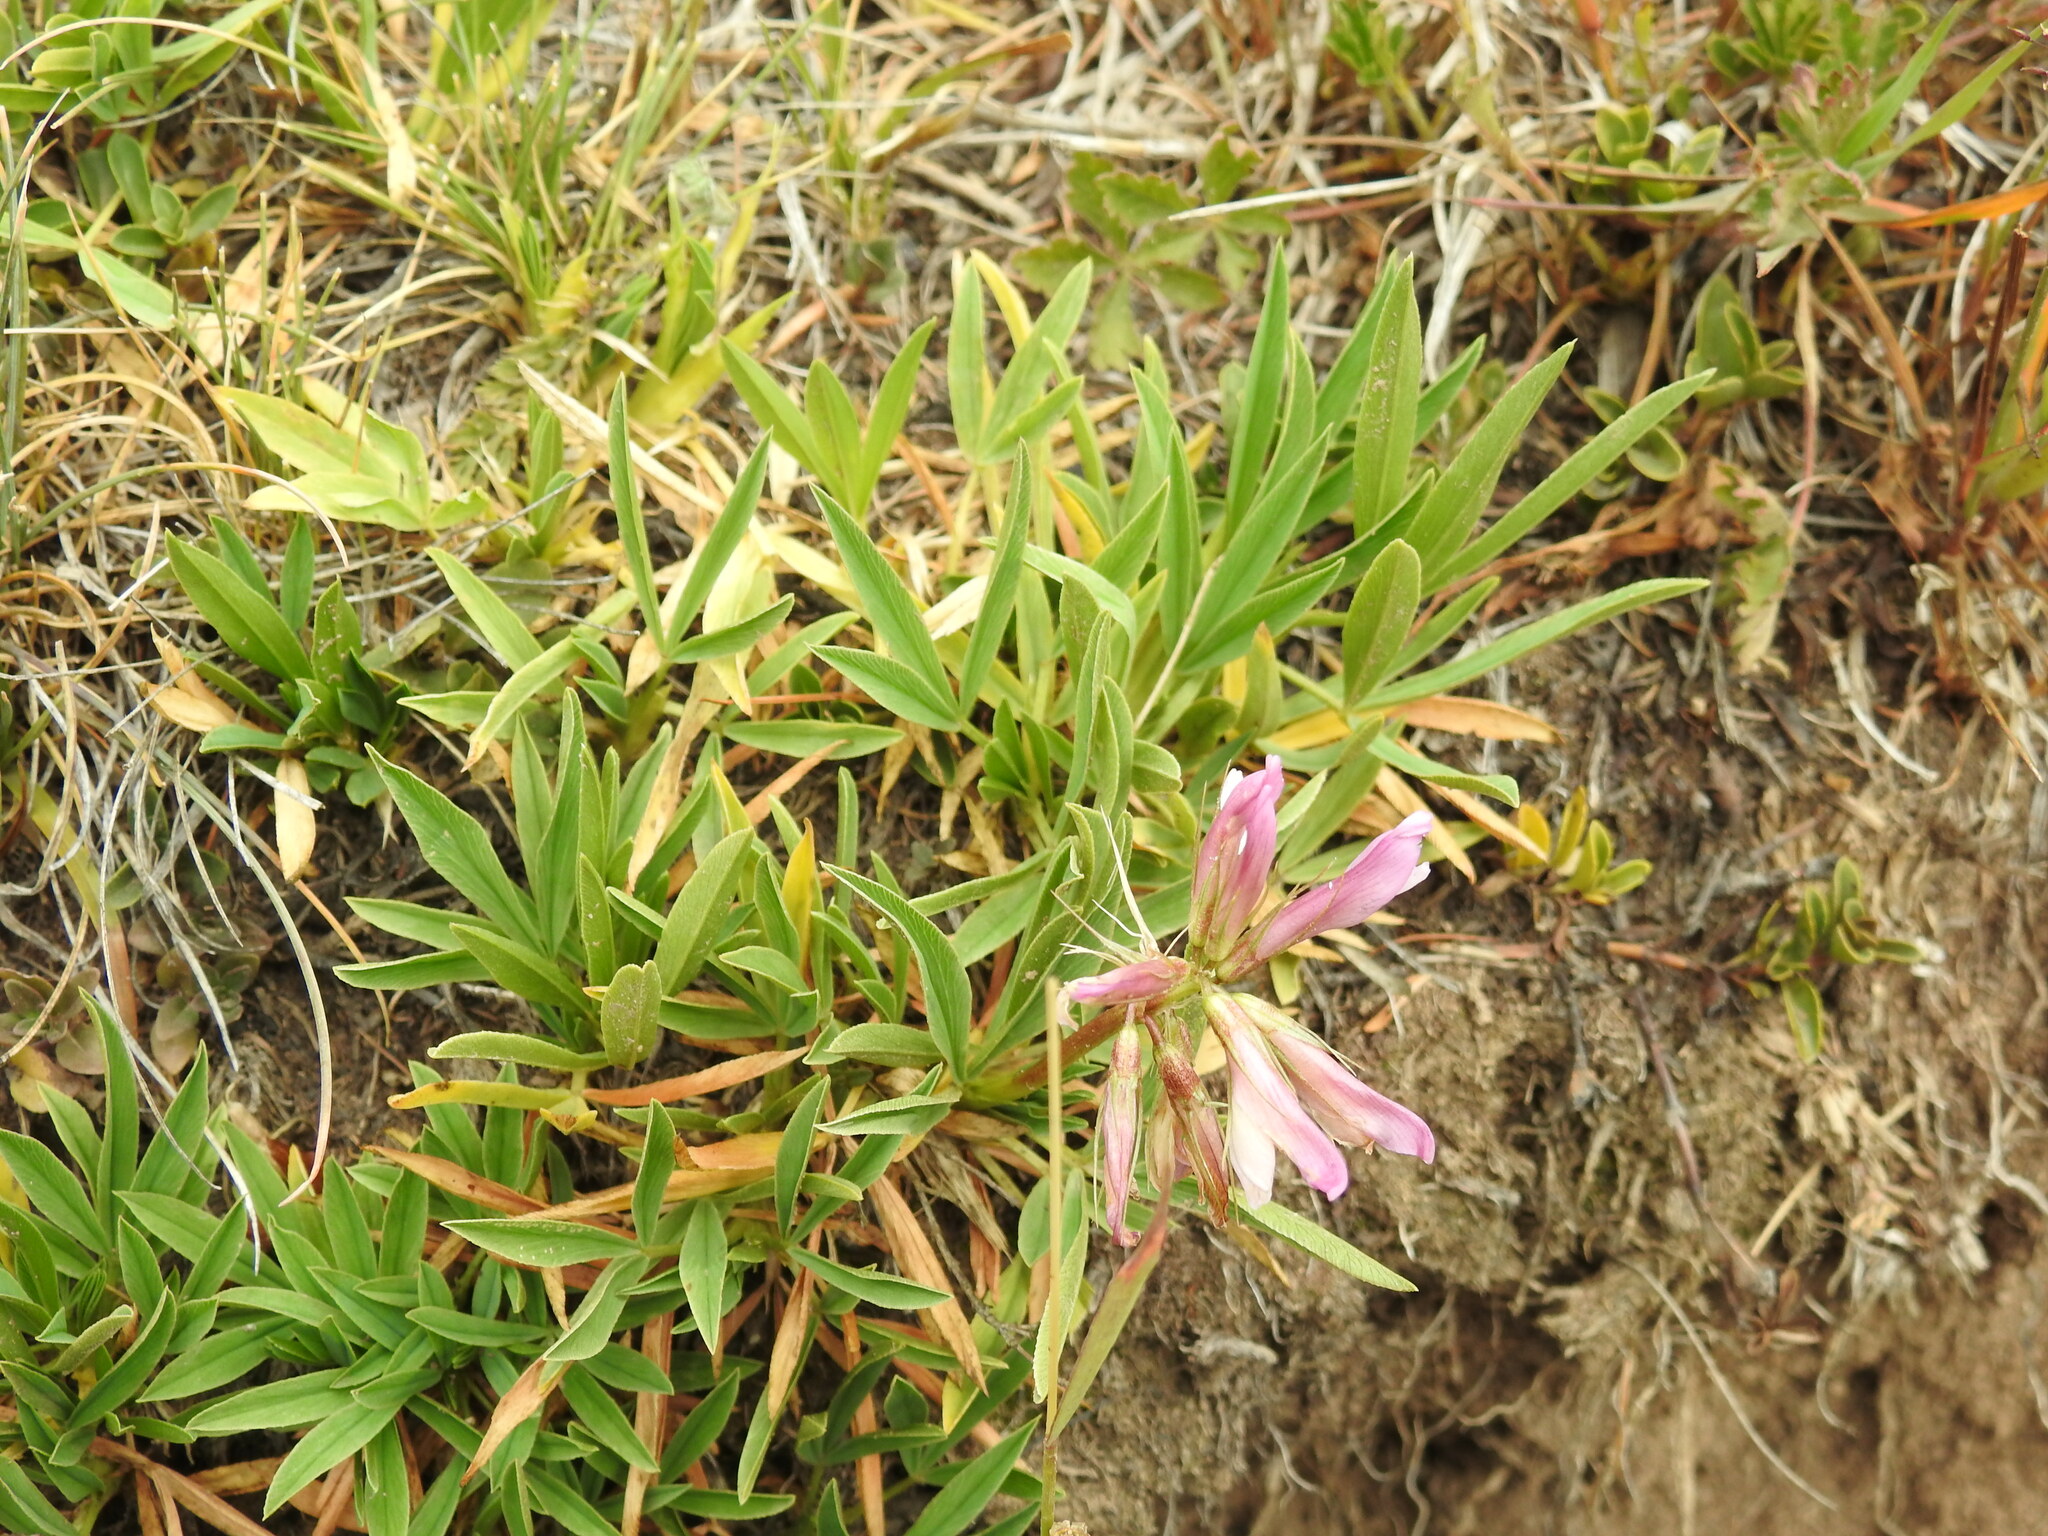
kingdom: Plantae
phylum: Tracheophyta
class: Magnoliopsida
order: Fabales
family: Fabaceae
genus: Trifolium
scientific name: Trifolium alpinum
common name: Alpine clover
